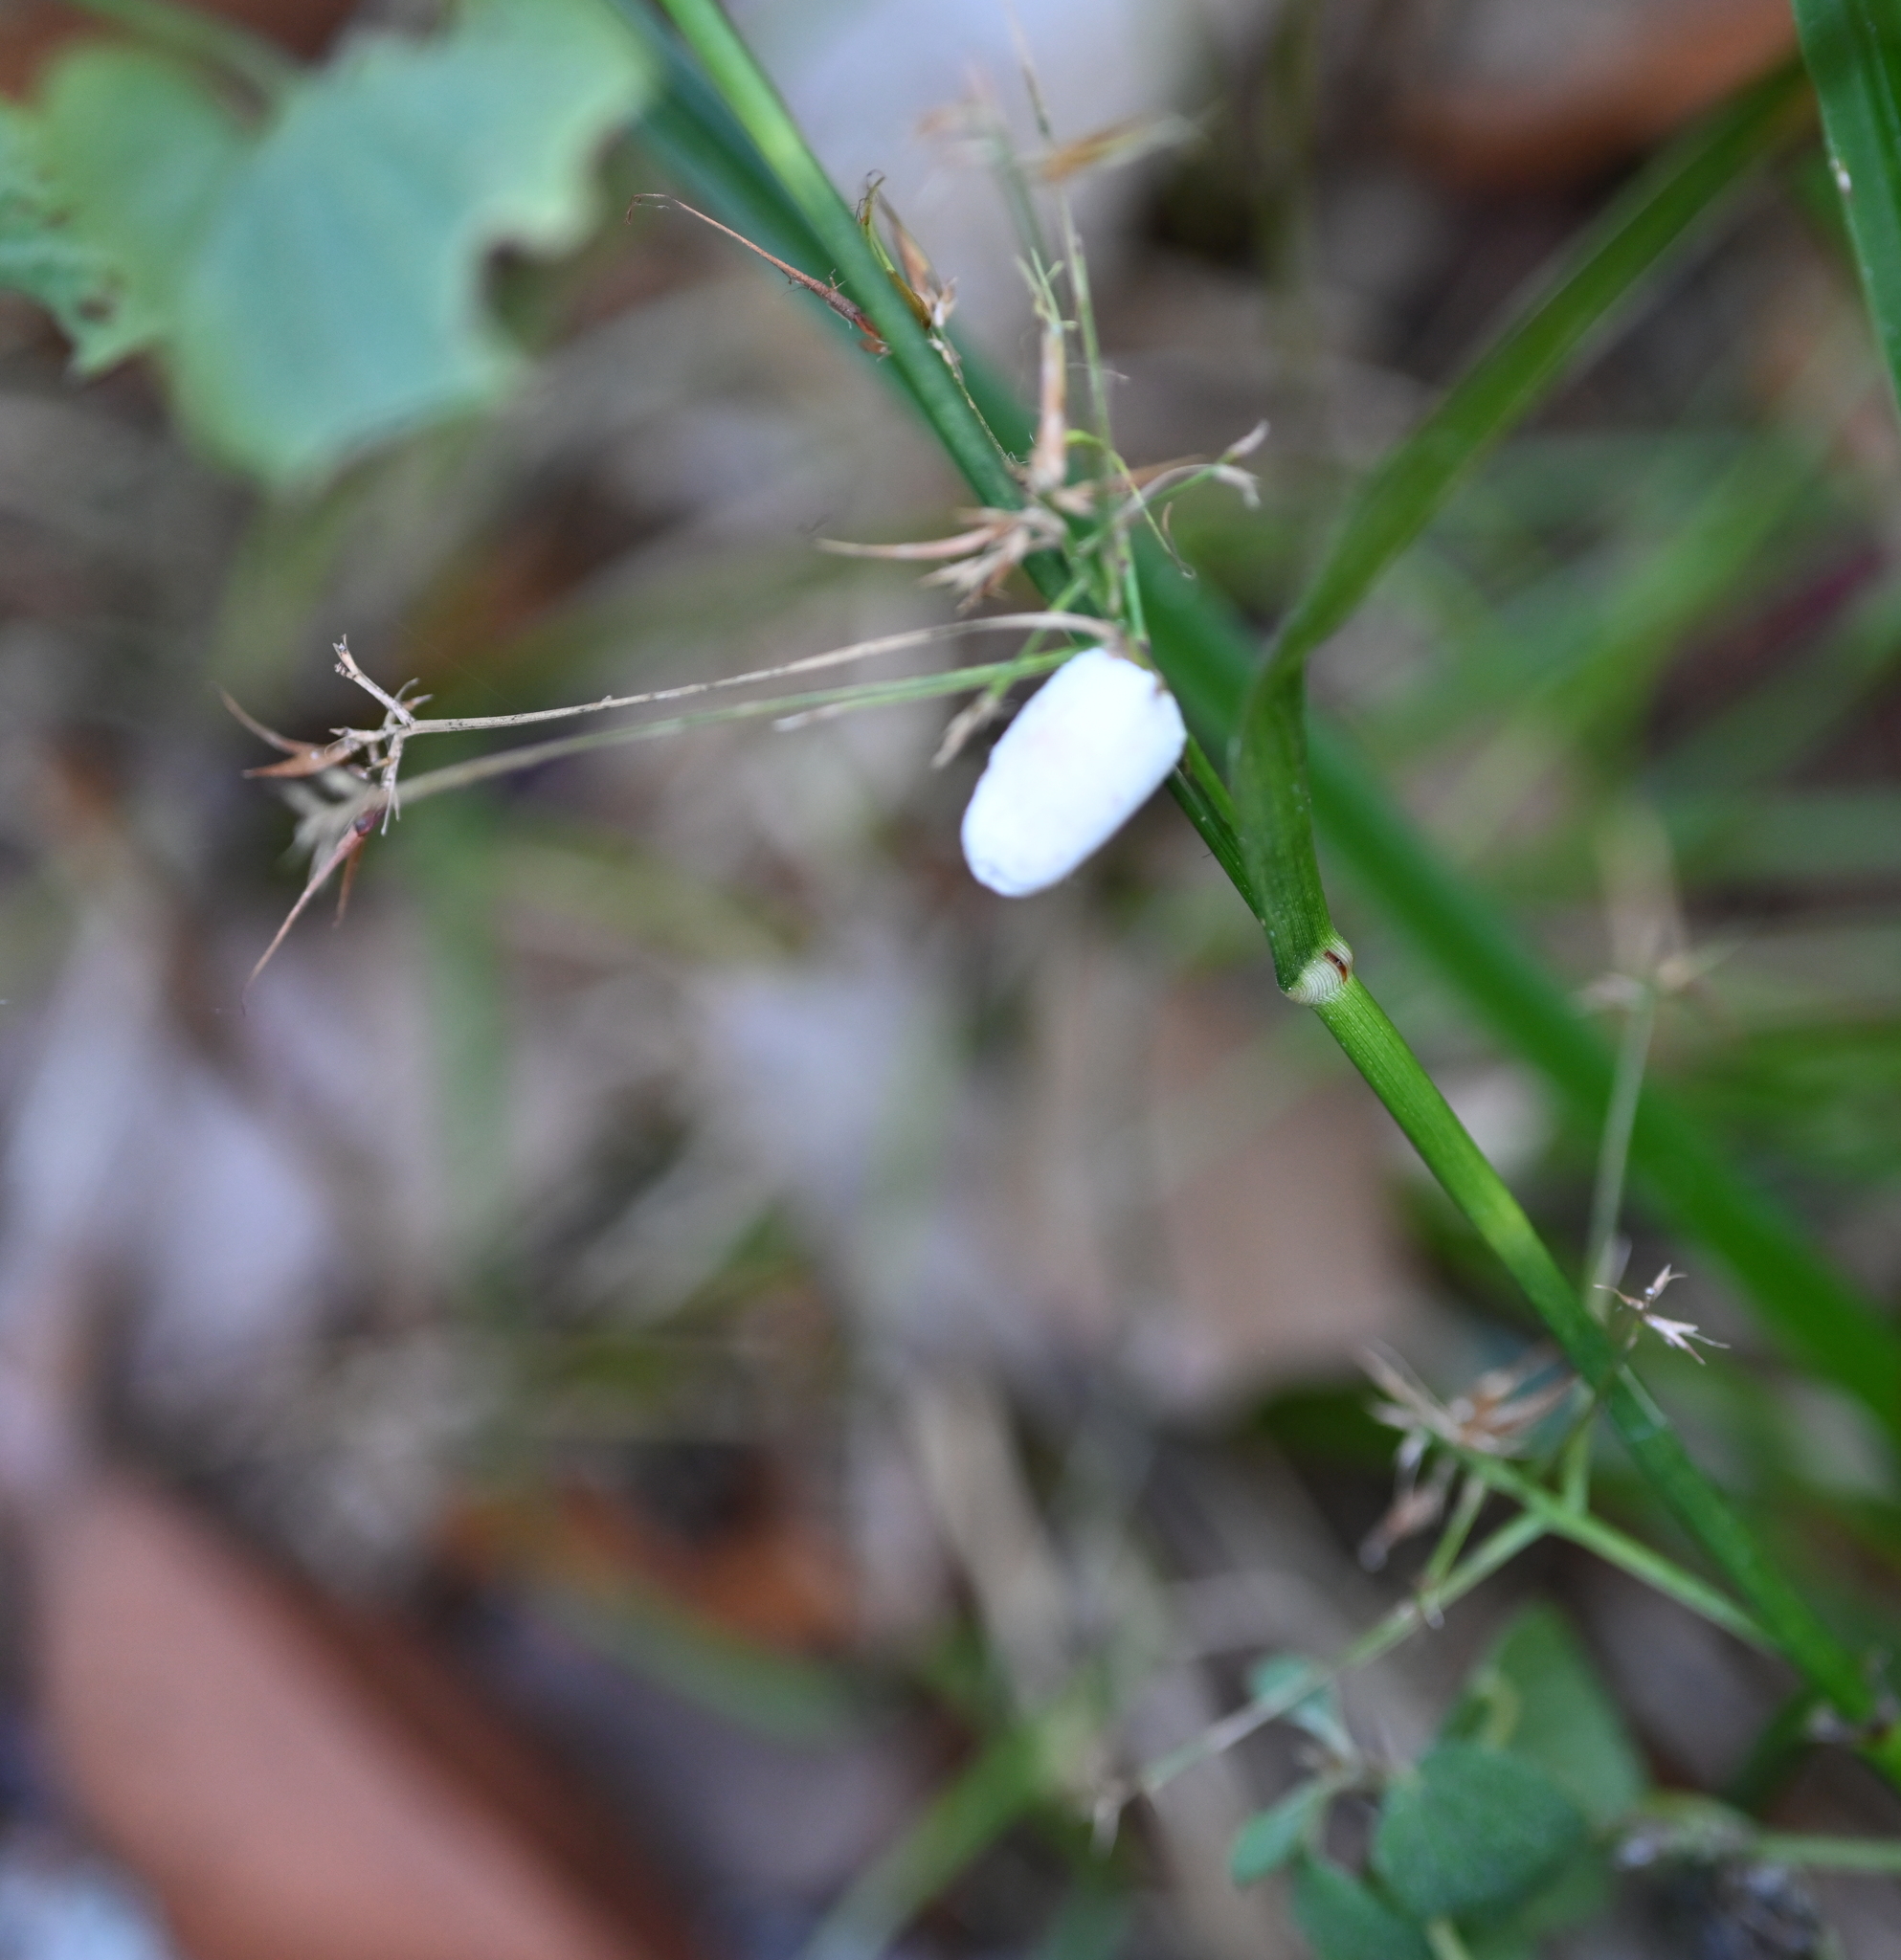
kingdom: Fungi
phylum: Basidiomycota
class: Ustilaginomycetes
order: Ustilaginales
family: Anthracoideaceae
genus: Testicularia
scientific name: Testicularia cyperi
